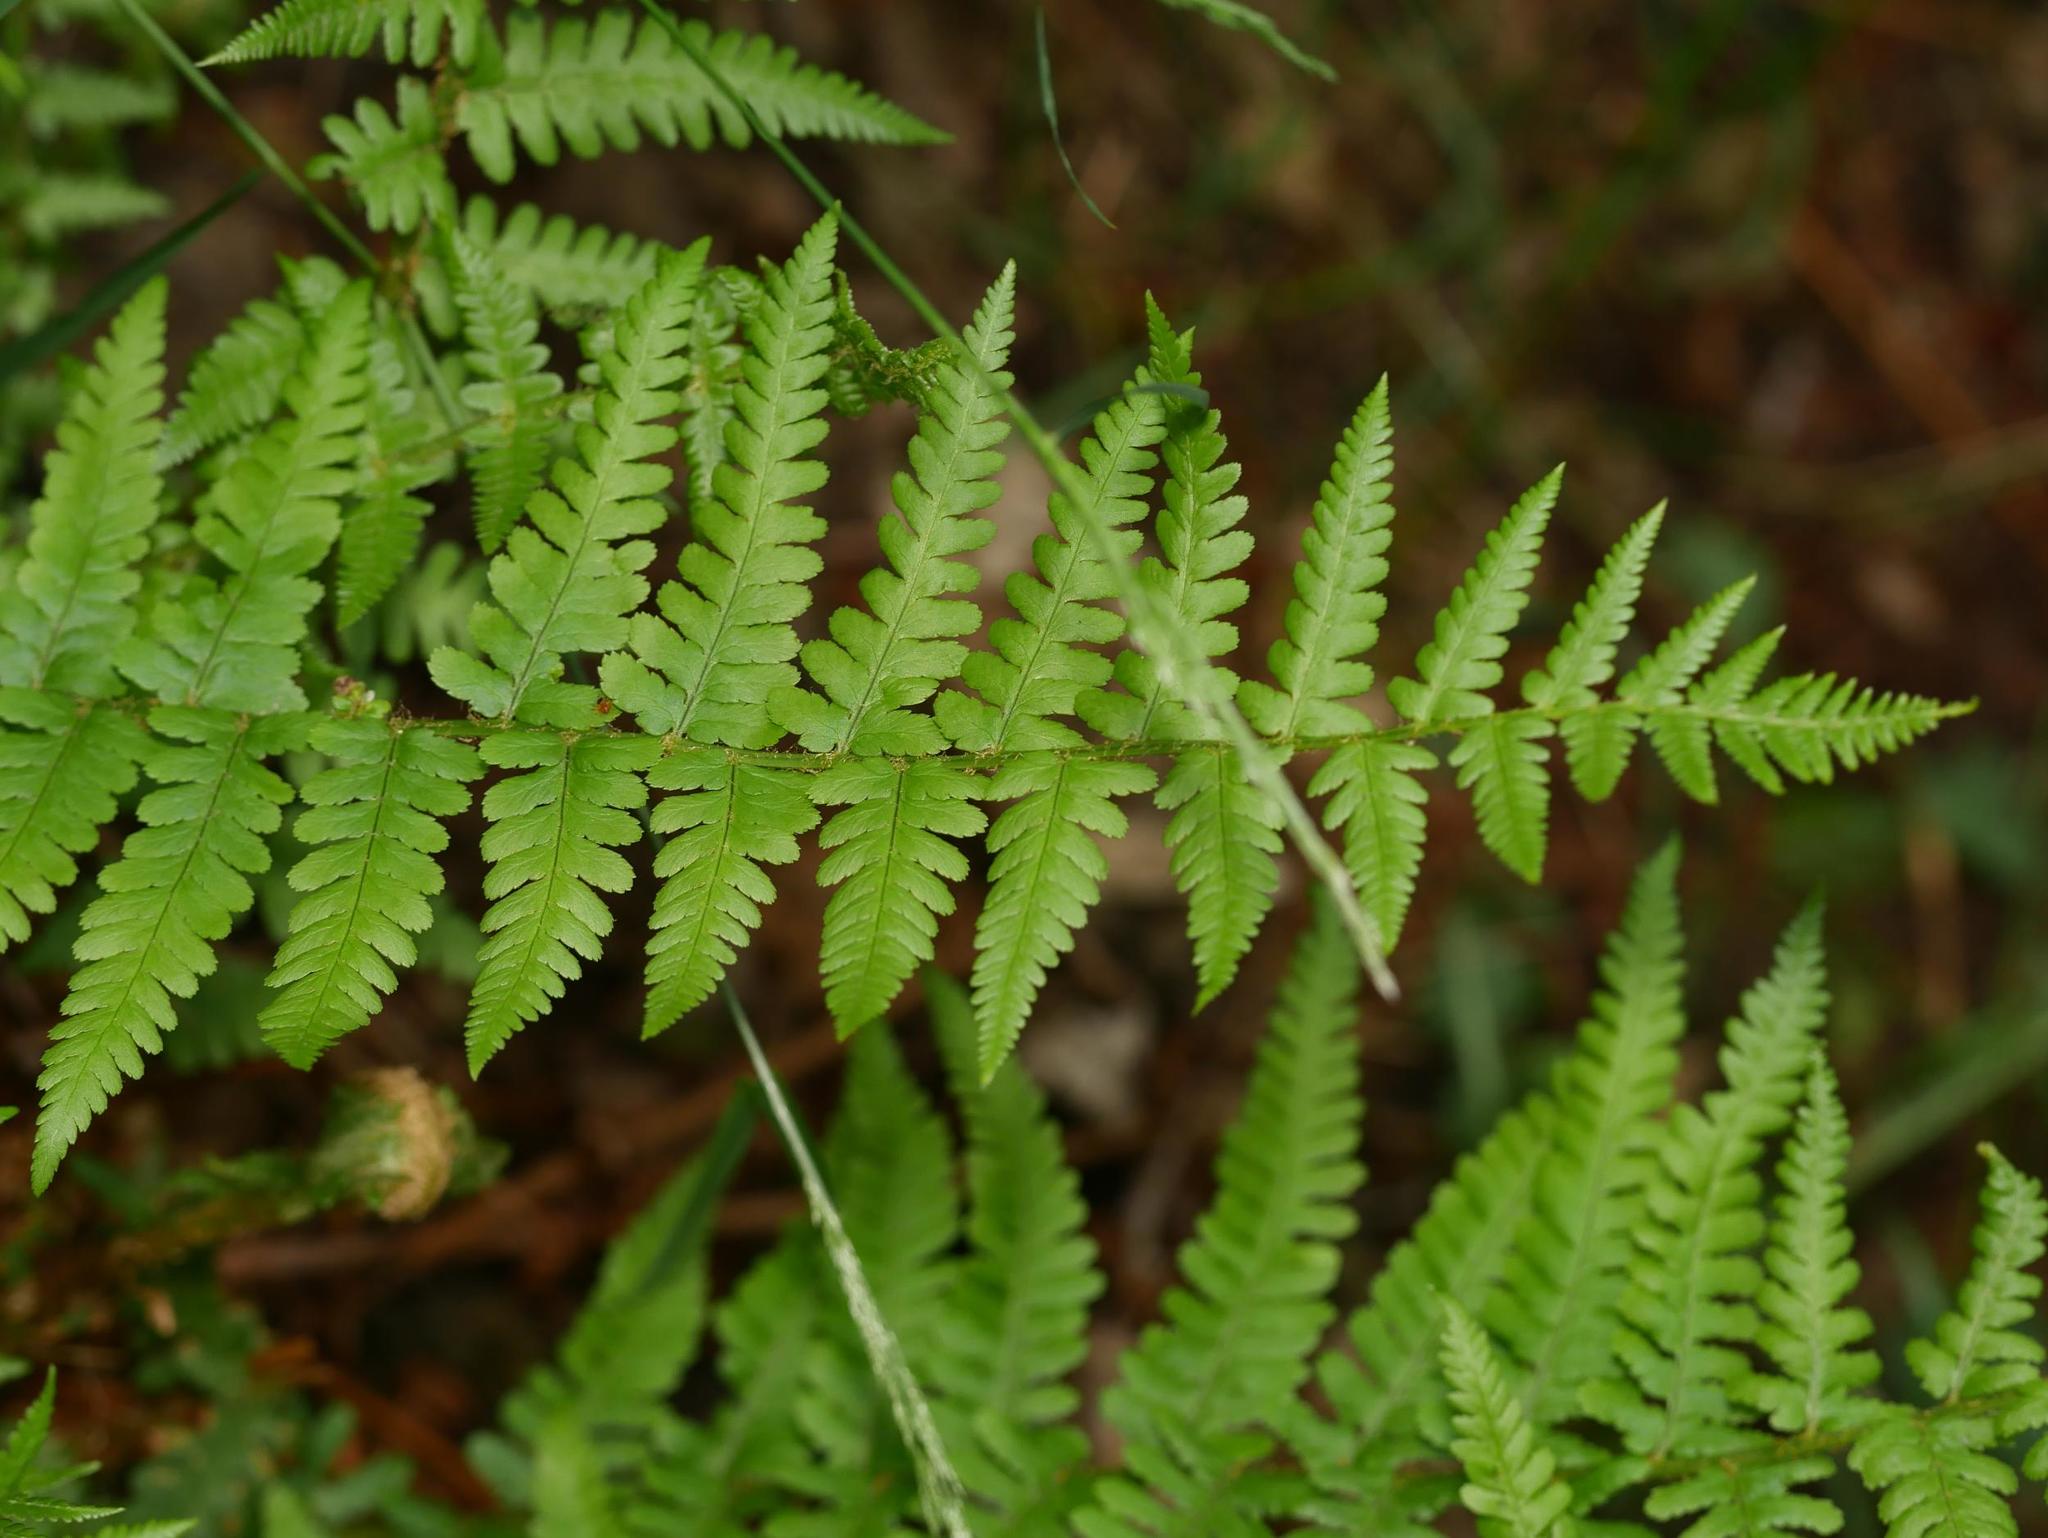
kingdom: Plantae
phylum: Tracheophyta
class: Polypodiopsida
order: Polypodiales
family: Dryopteridaceae
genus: Dryopteris
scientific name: Dryopteris filix-mas
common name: Male fern
